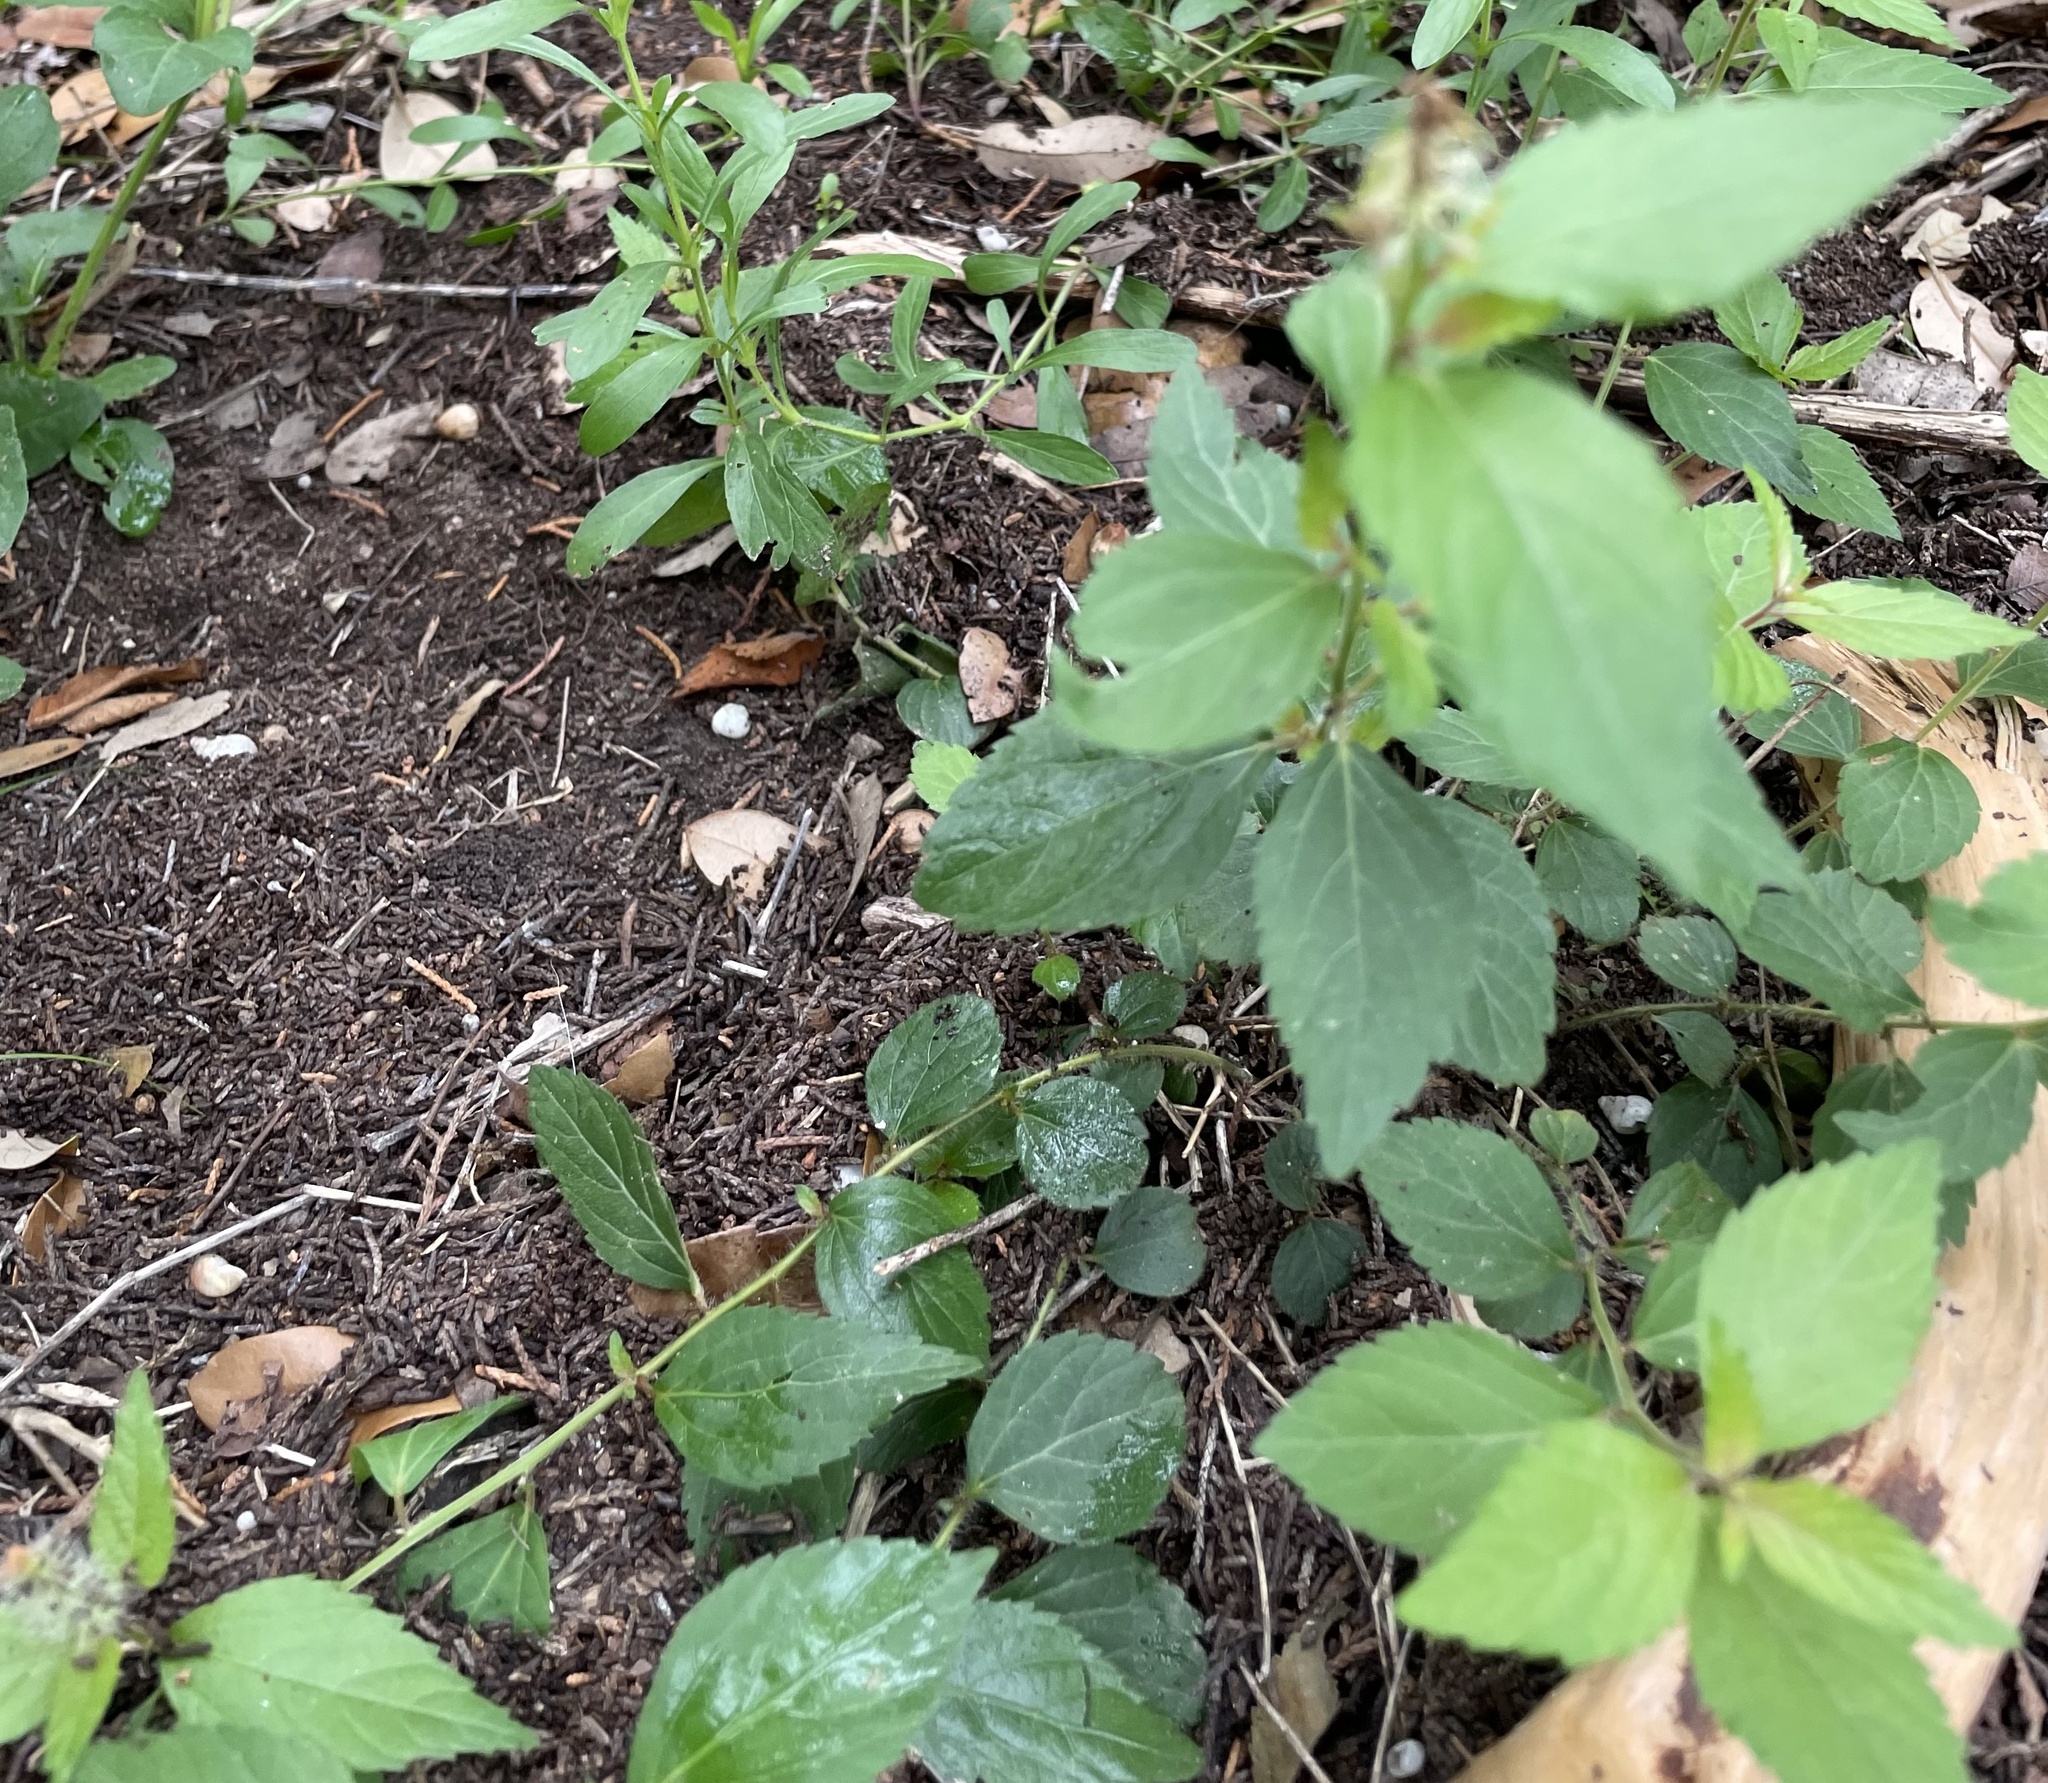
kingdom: Plantae
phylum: Tracheophyta
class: Magnoliopsida
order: Malpighiales
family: Euphorbiaceae
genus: Acalypha
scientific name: Acalypha phleoides
